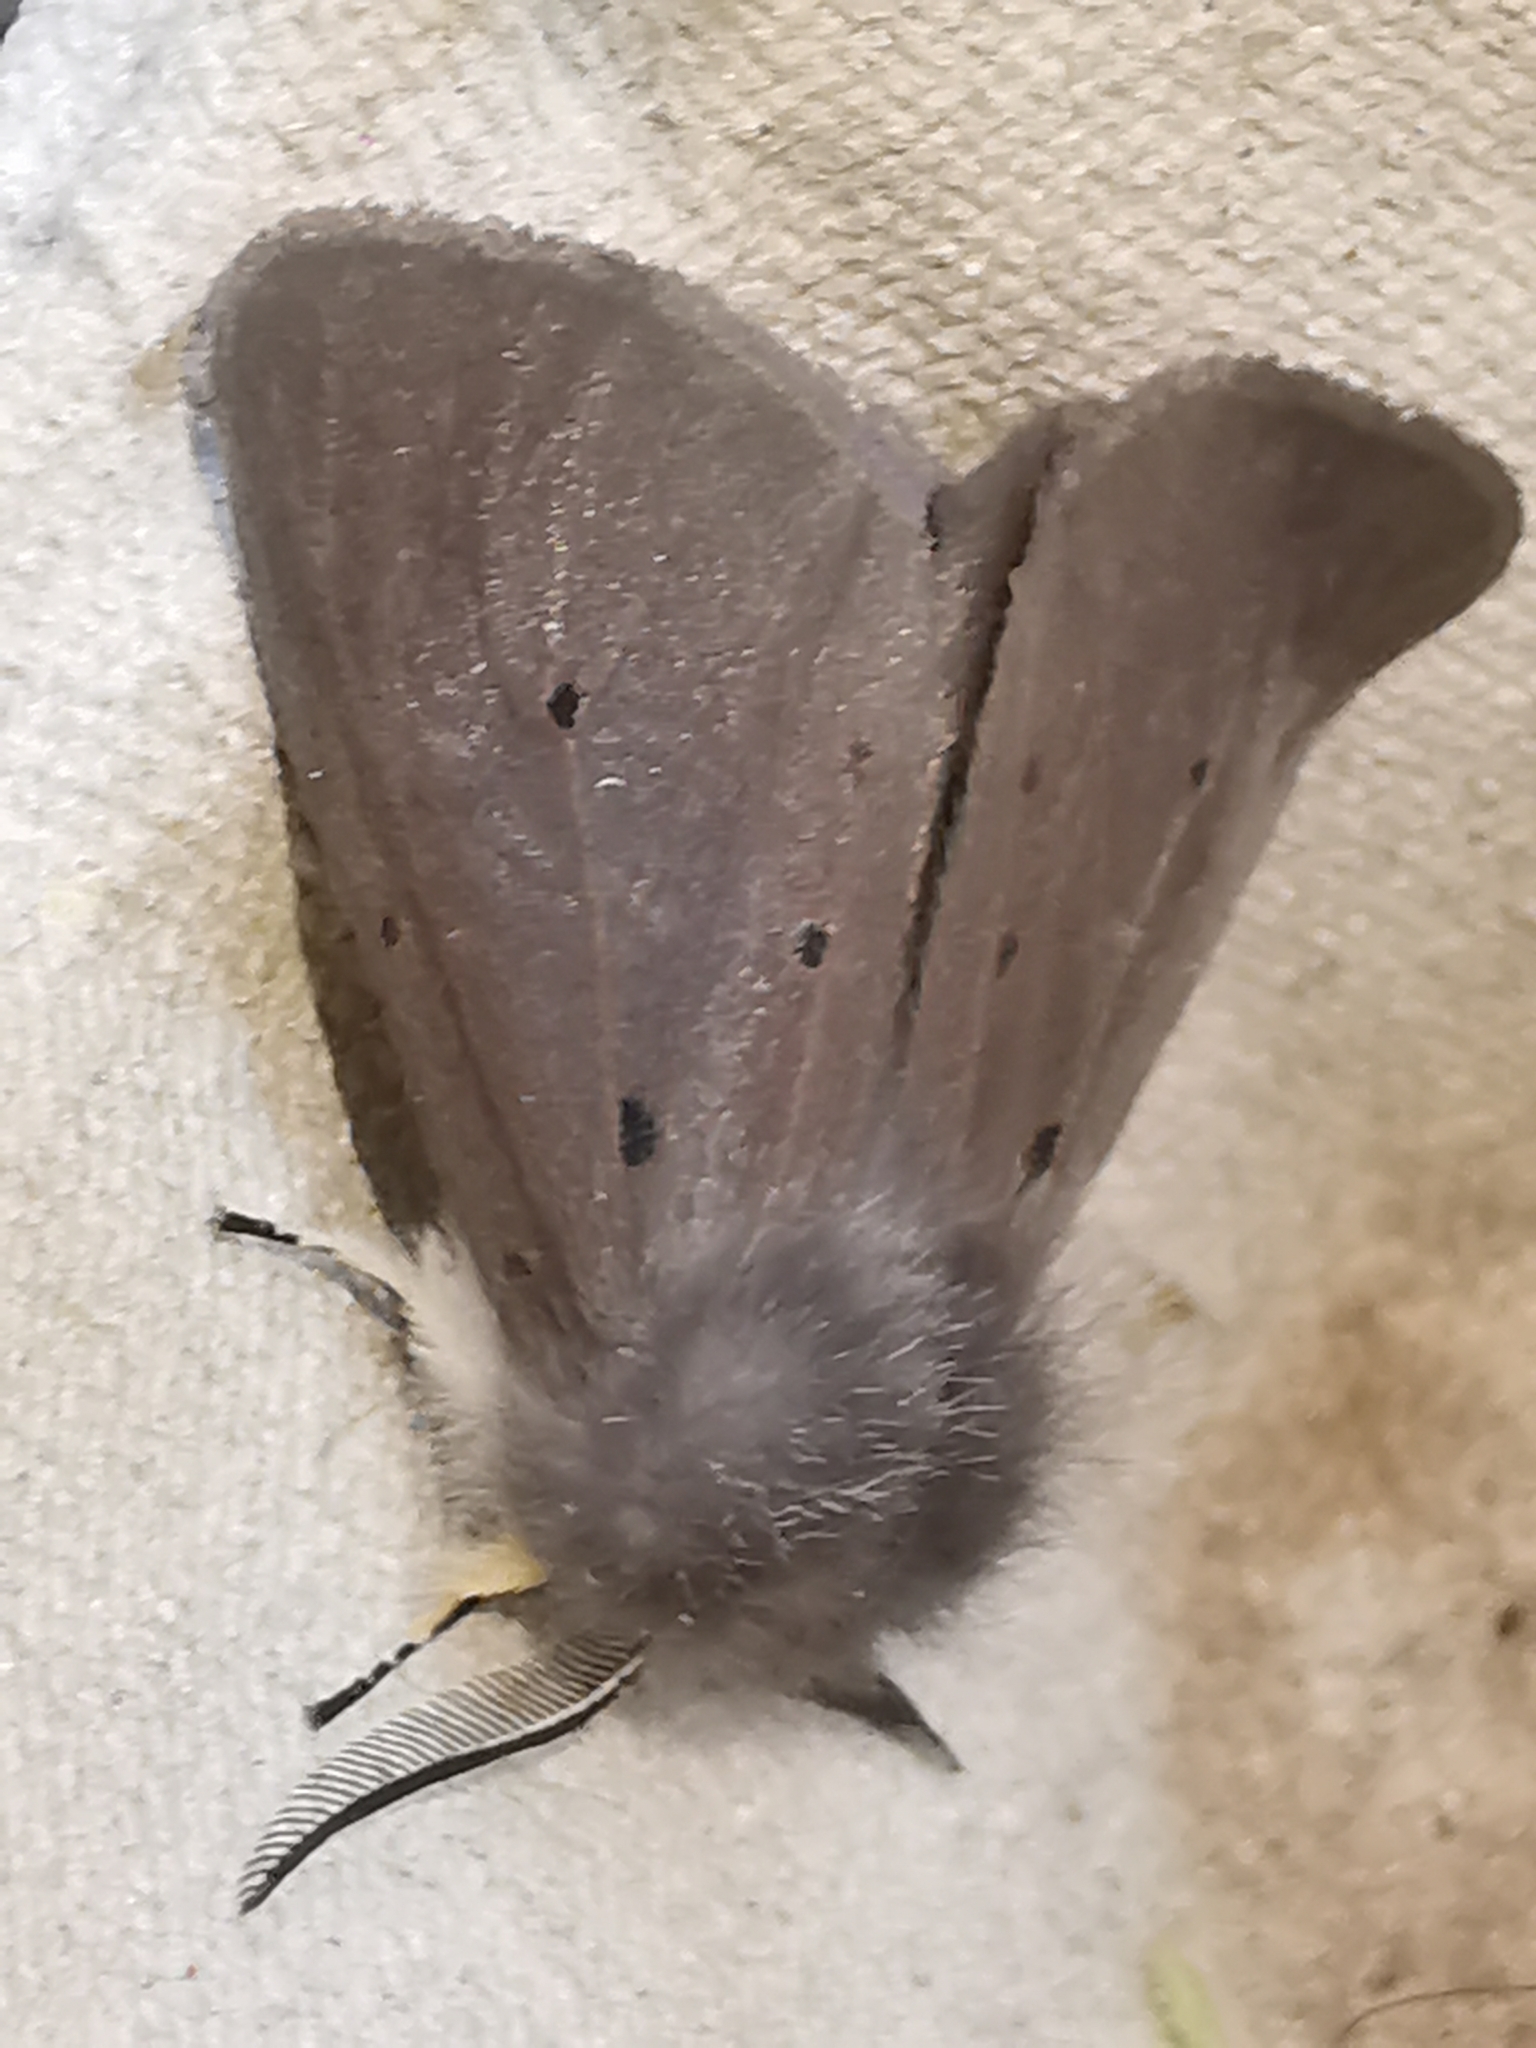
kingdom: Animalia
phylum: Arthropoda
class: Insecta
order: Lepidoptera
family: Erebidae
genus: Diaphora
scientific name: Diaphora mendica
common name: Muslin moth
